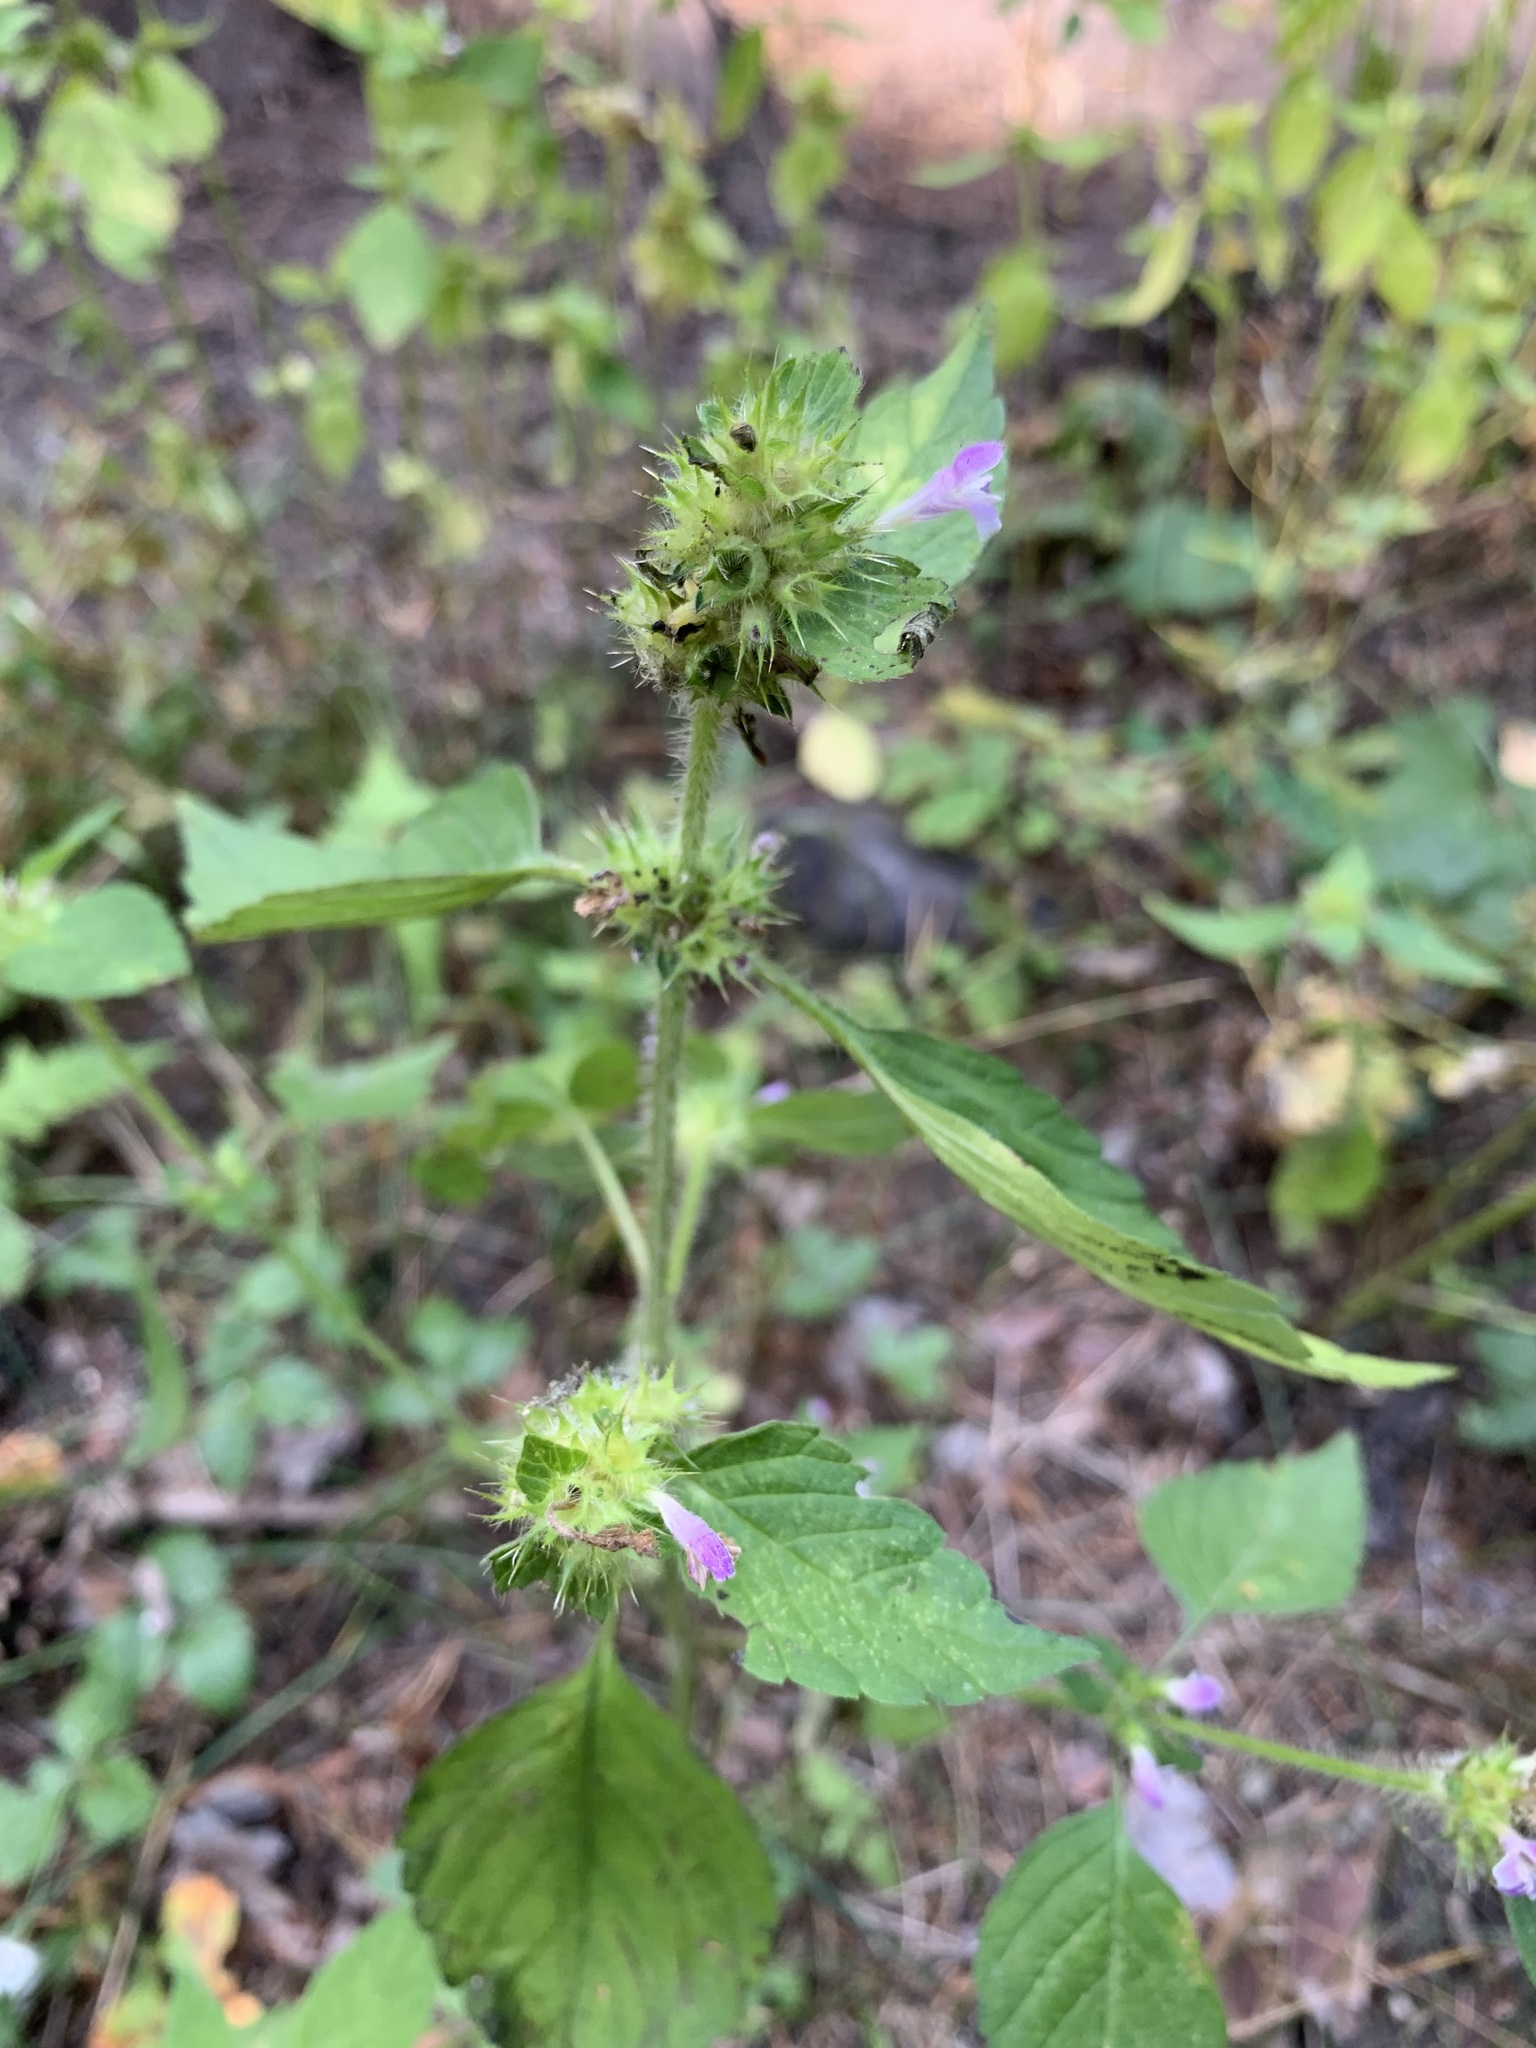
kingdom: Plantae
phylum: Tracheophyta
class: Magnoliopsida
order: Lamiales
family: Lamiaceae
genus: Galeopsis
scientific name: Galeopsis bifida
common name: Bifid hemp-nettle
